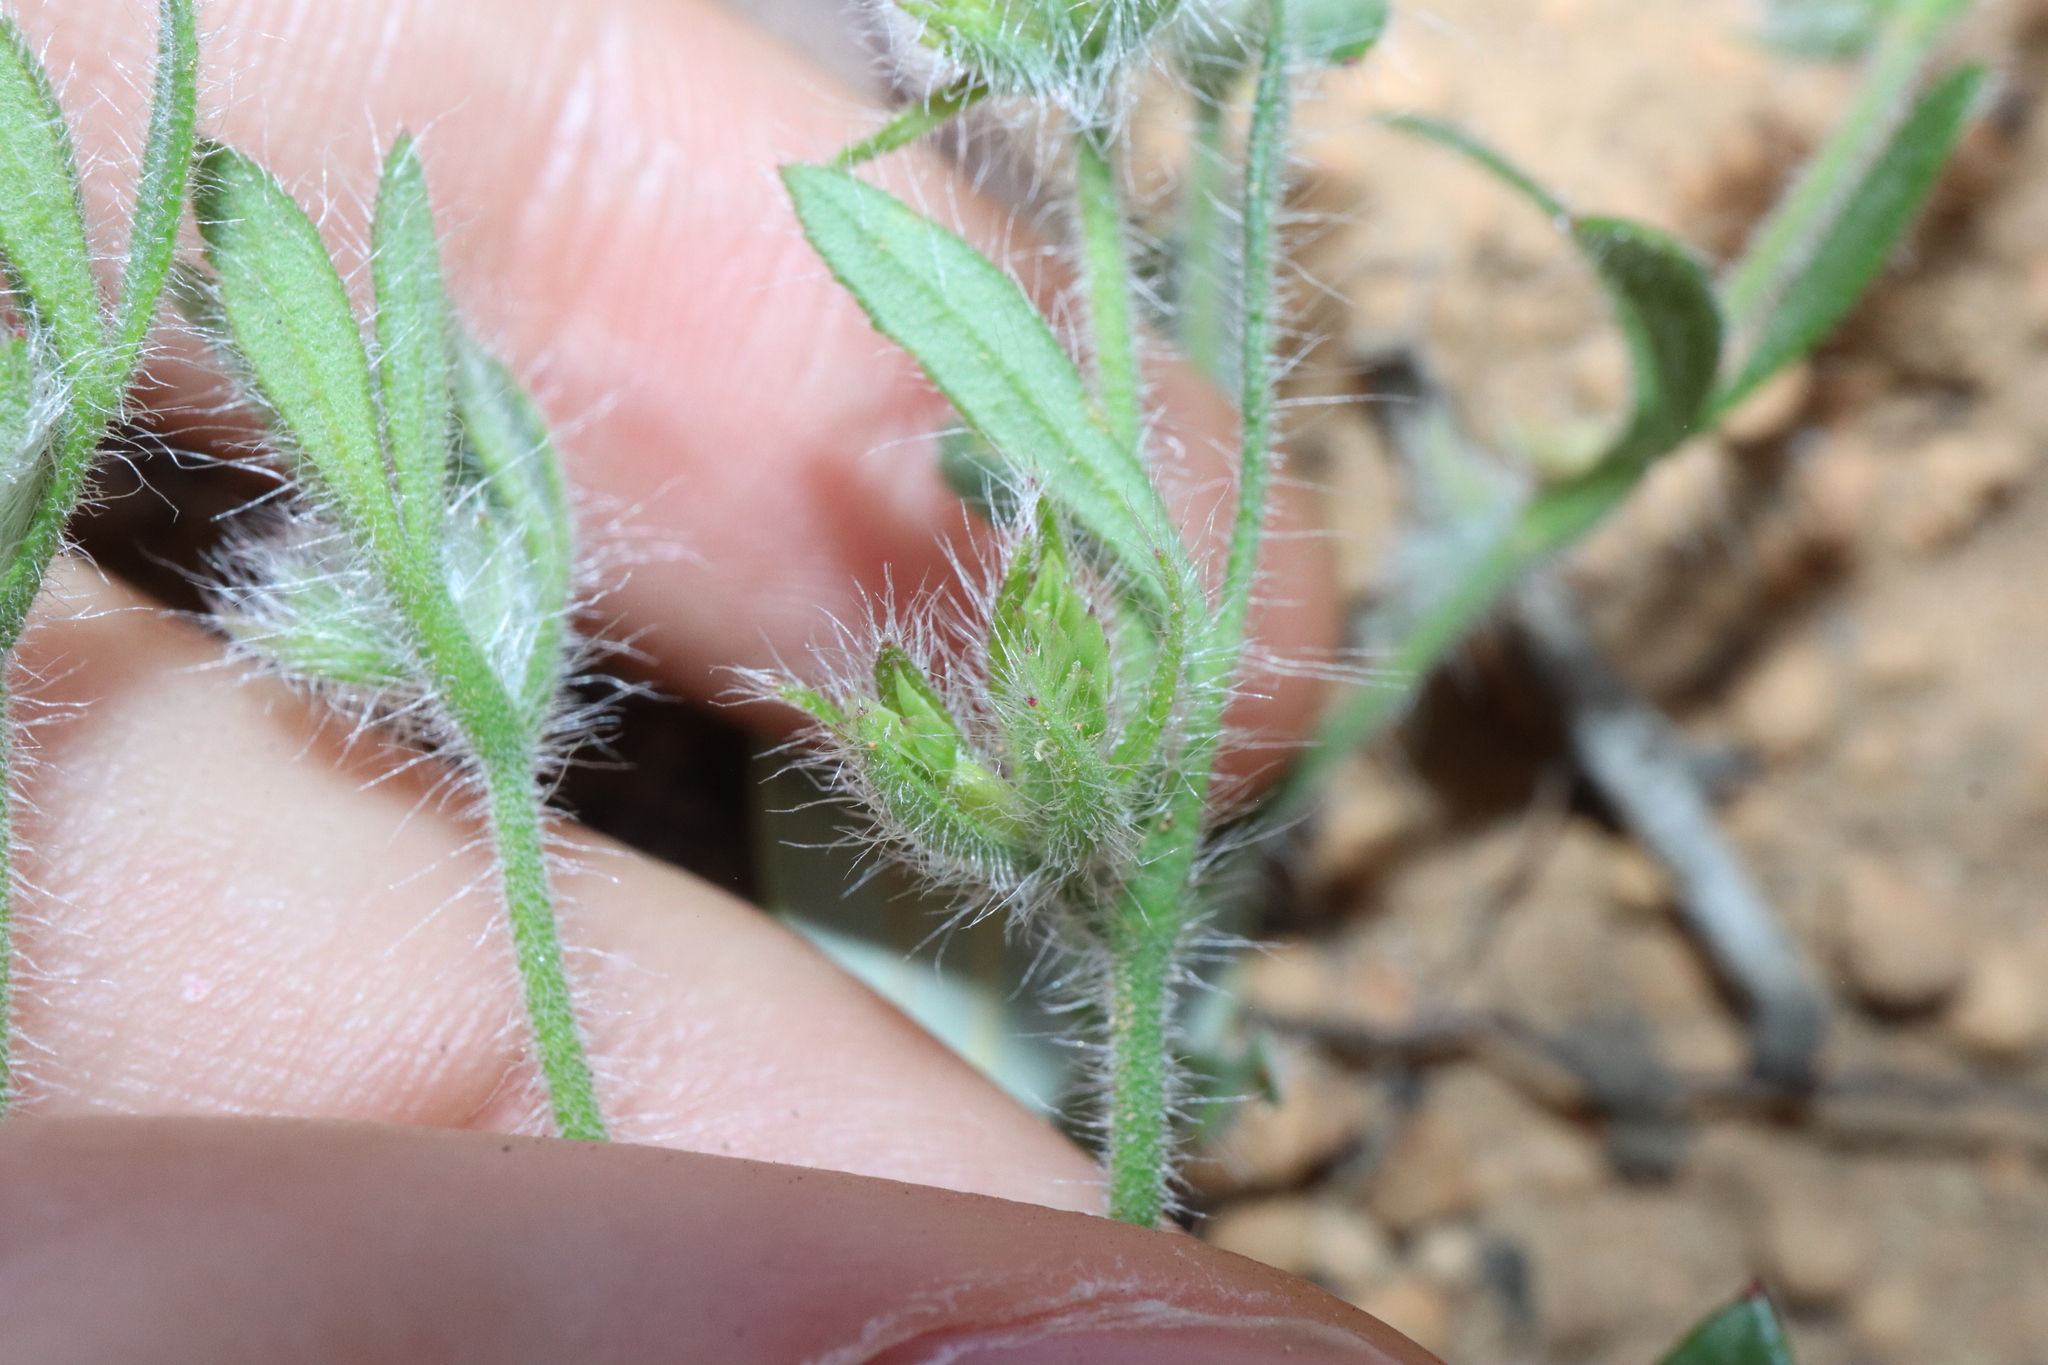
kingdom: Plantae
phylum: Tracheophyta
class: Magnoliopsida
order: Apiales
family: Apiaceae
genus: Xanthosia
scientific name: Xanthosia huegelii
